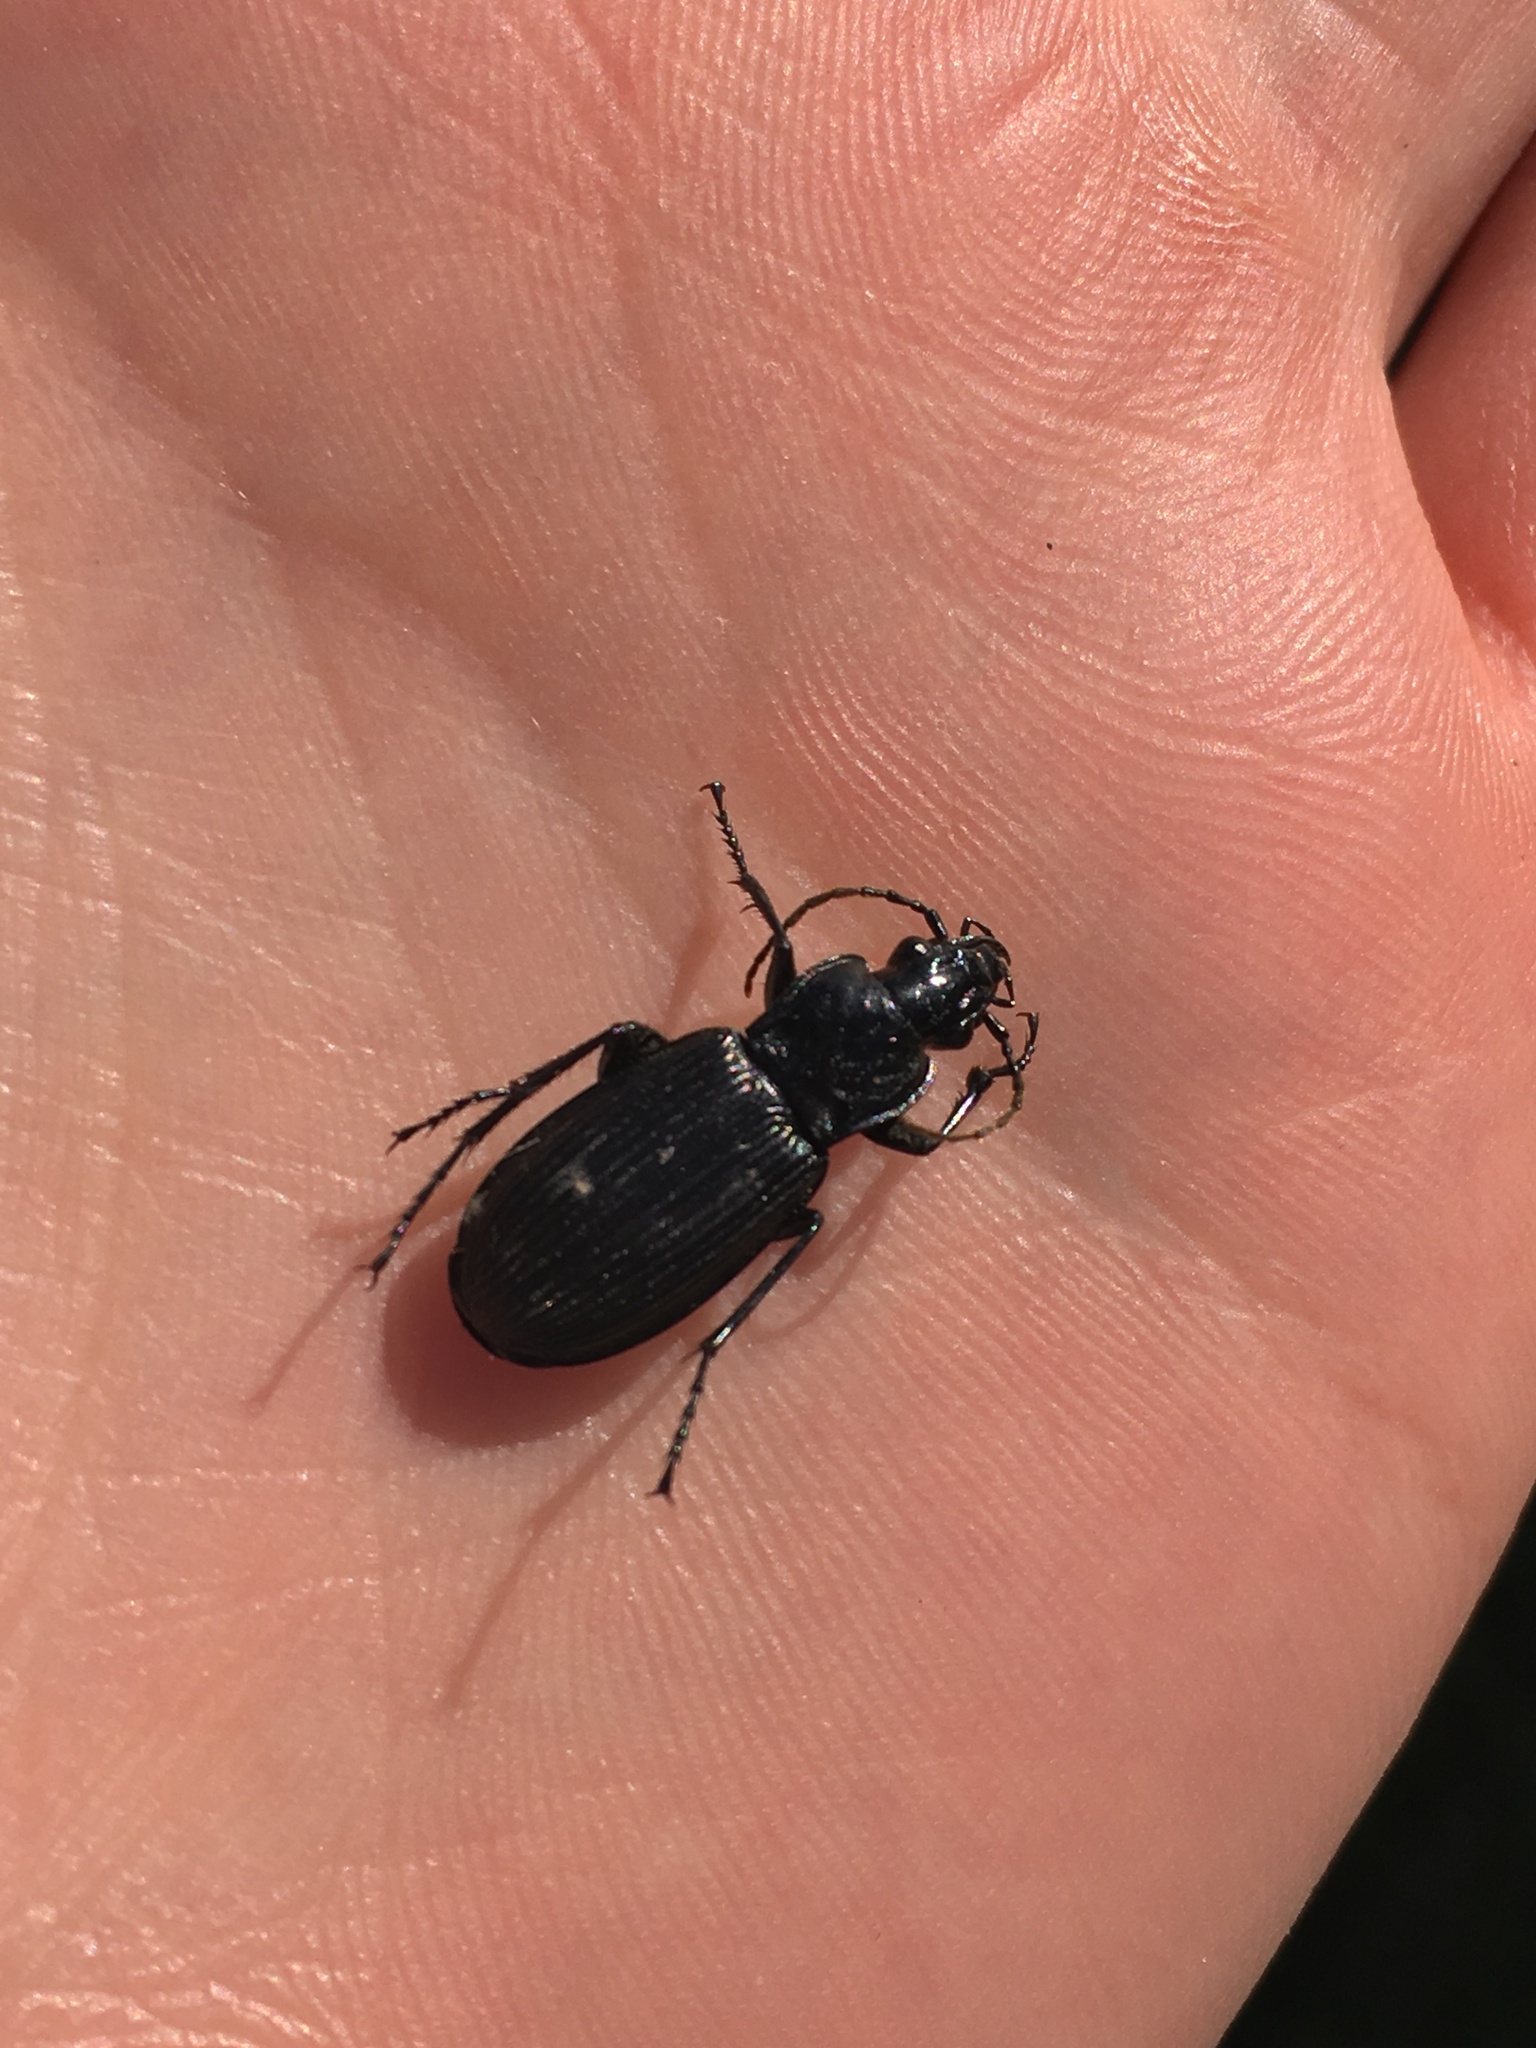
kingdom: Animalia
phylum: Arthropoda
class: Insecta
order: Coleoptera
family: Carabidae
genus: Pterostichus
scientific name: Pterostichus niger
